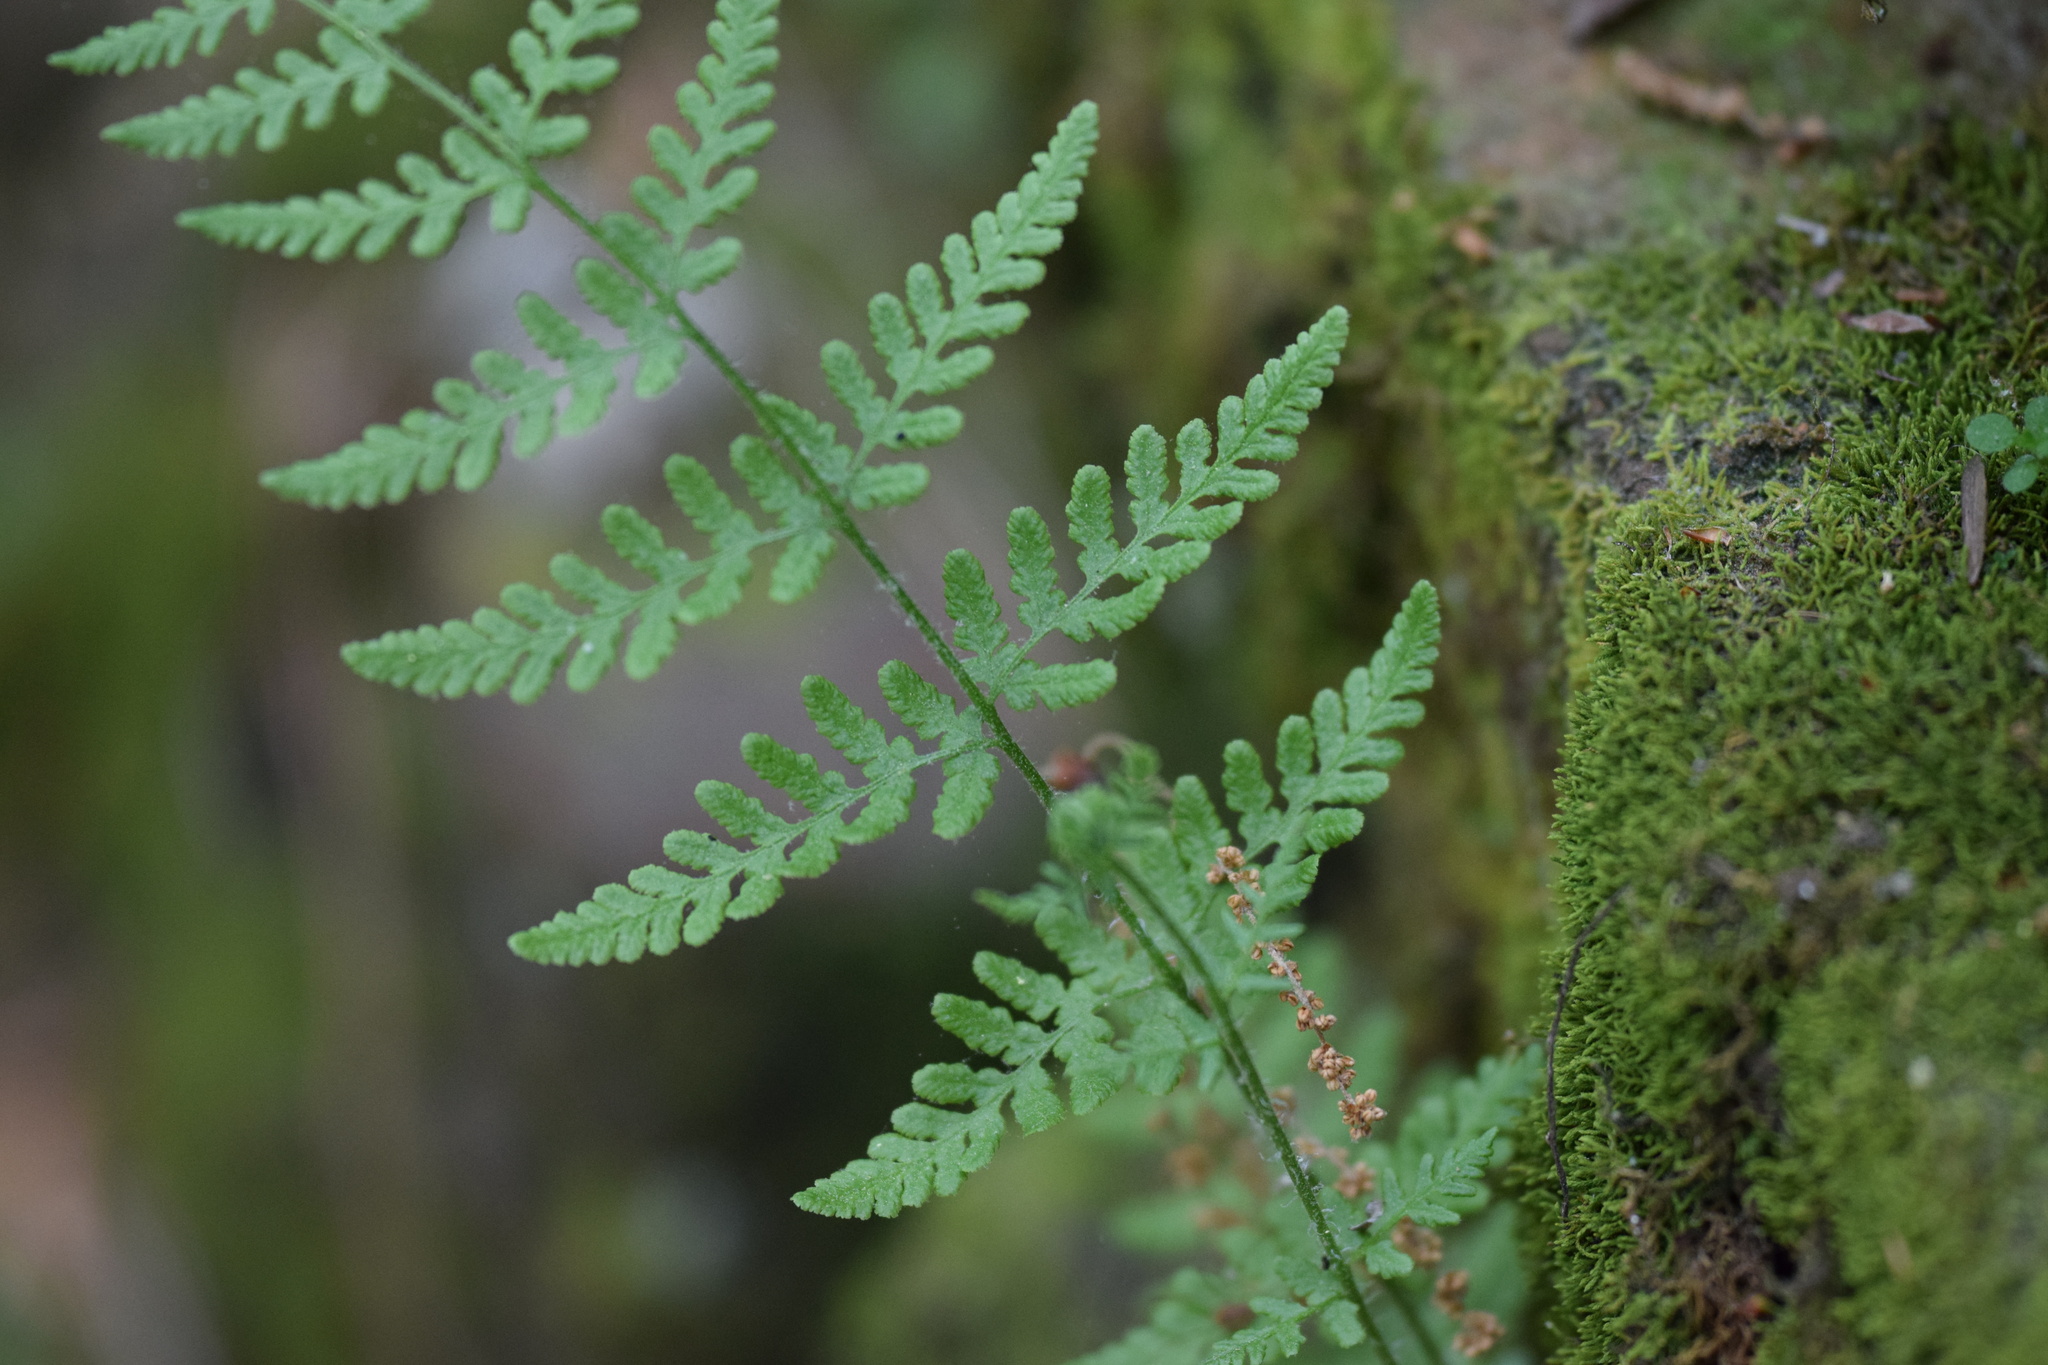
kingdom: Plantae
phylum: Tracheophyta
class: Polypodiopsida
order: Polypodiales
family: Woodsiaceae
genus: Physematium
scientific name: Physematium obtusum
